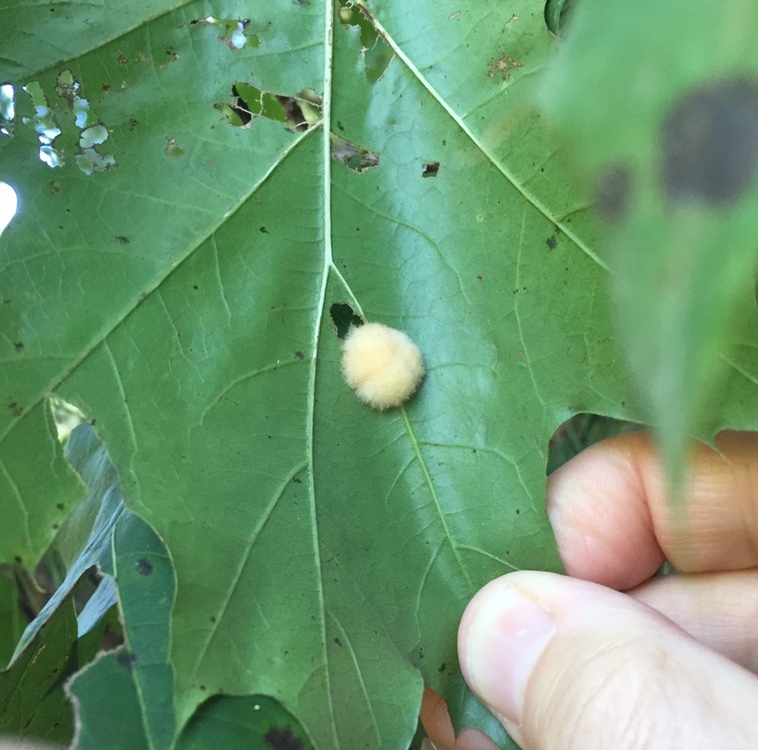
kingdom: Animalia
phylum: Arthropoda
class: Insecta
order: Hymenoptera
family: Cynipidae
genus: Callirhytis
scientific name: Callirhytis
